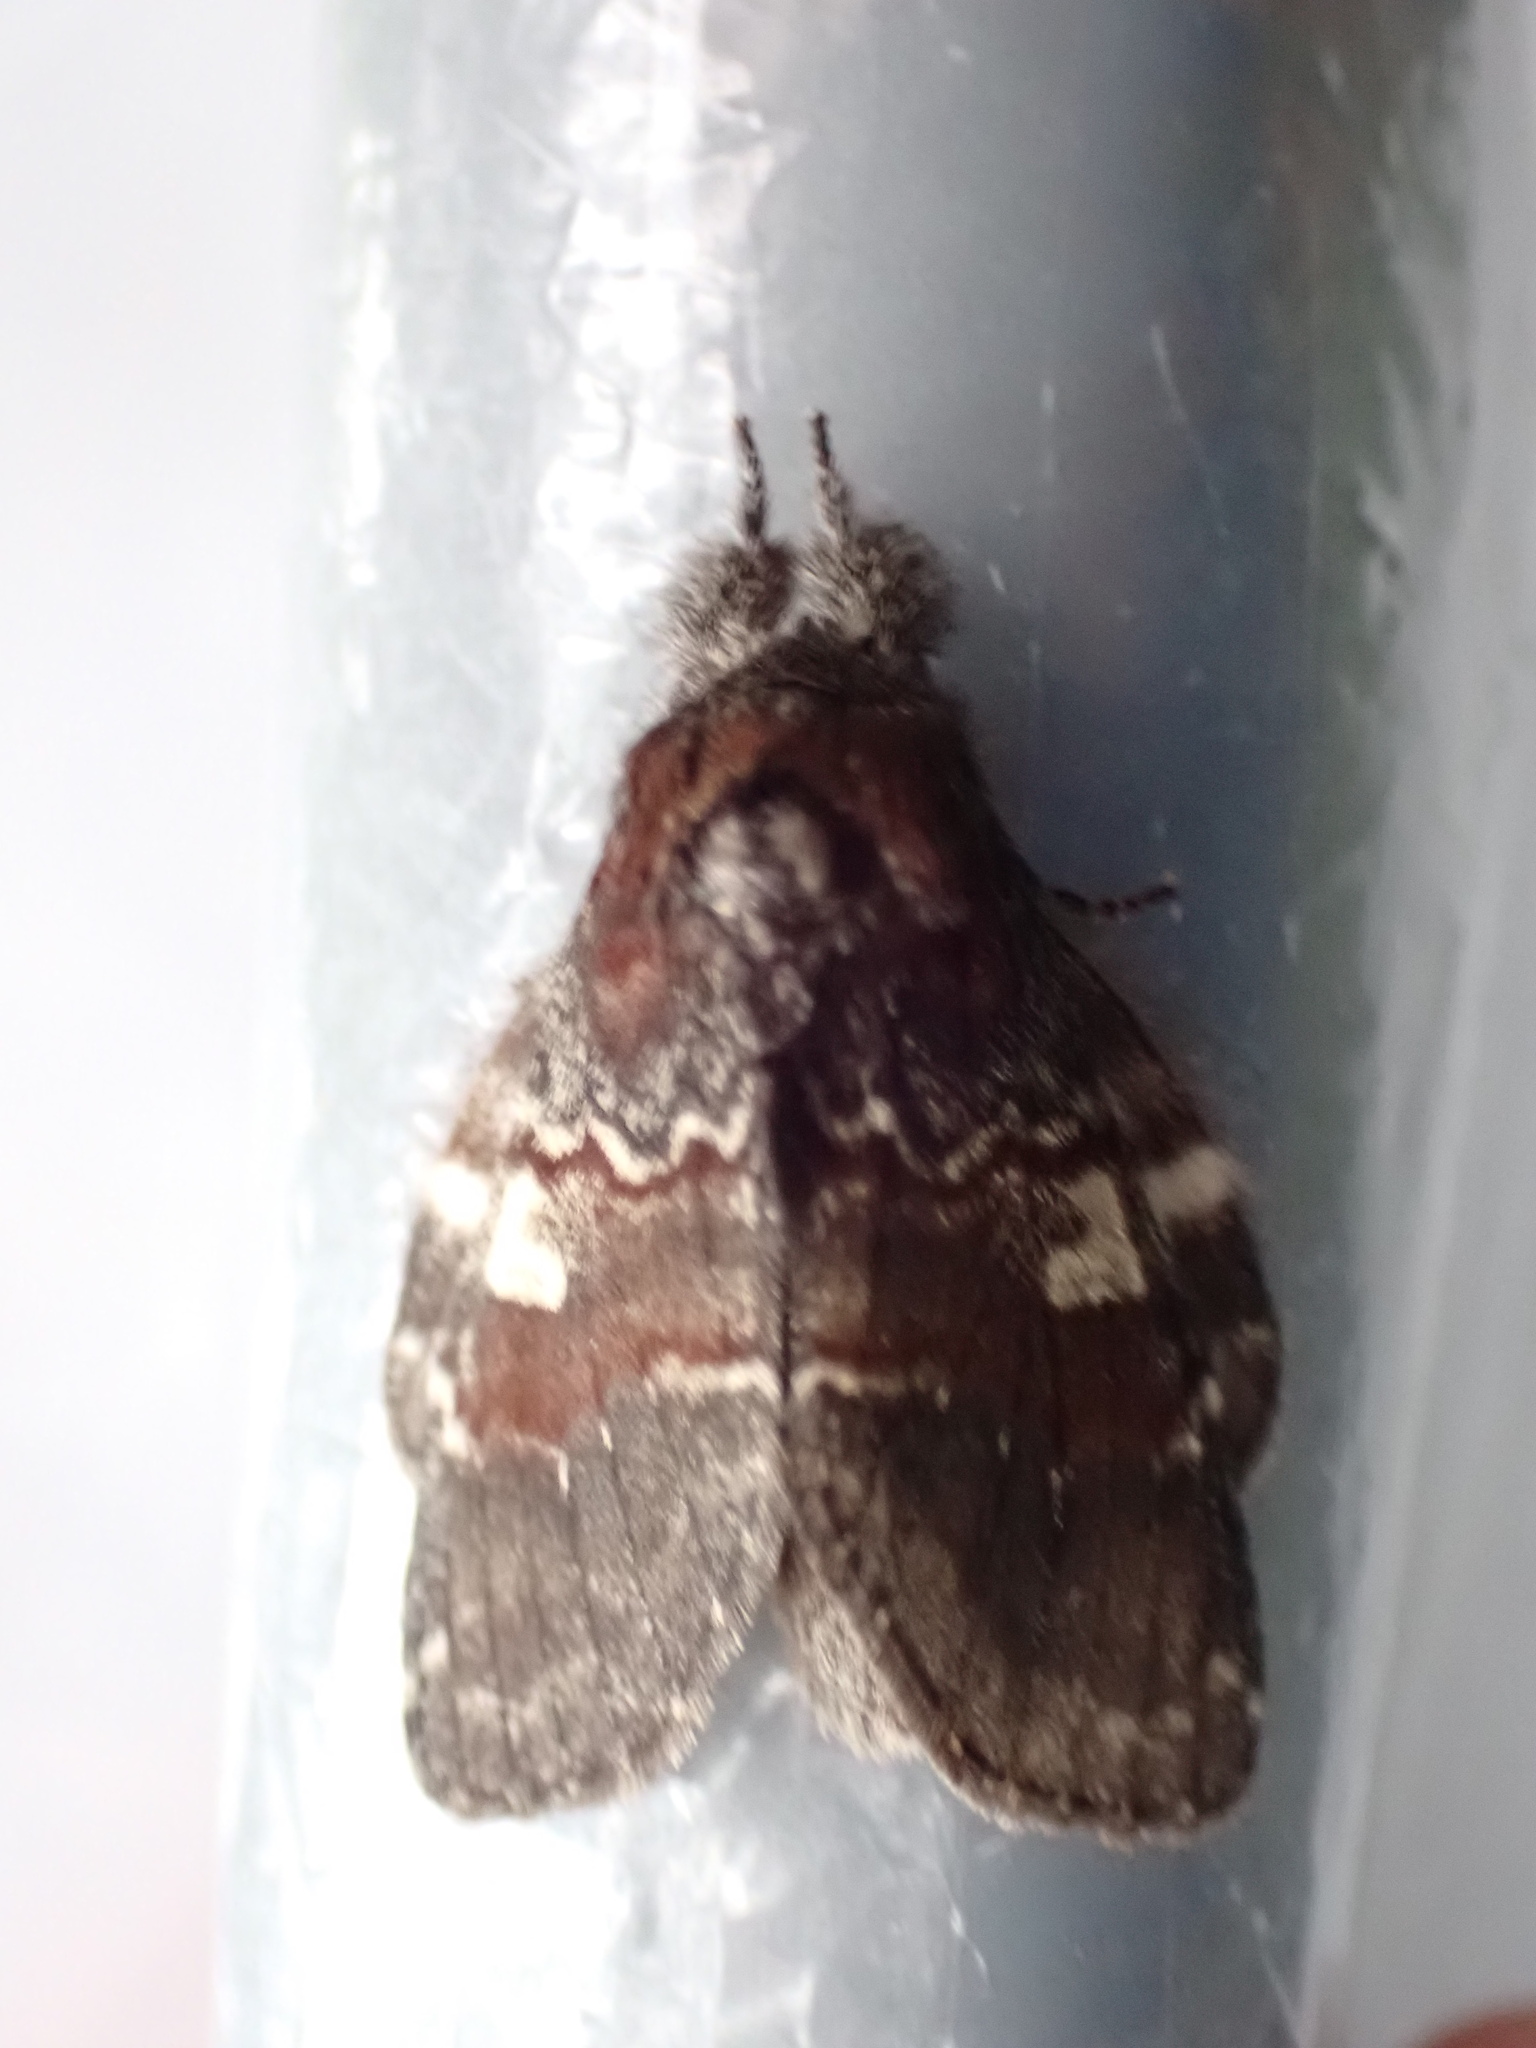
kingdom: Animalia
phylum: Arthropoda
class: Insecta
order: Lepidoptera
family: Notodontidae
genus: Peridea
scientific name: Peridea ferruginea
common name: Chocolate prominent
